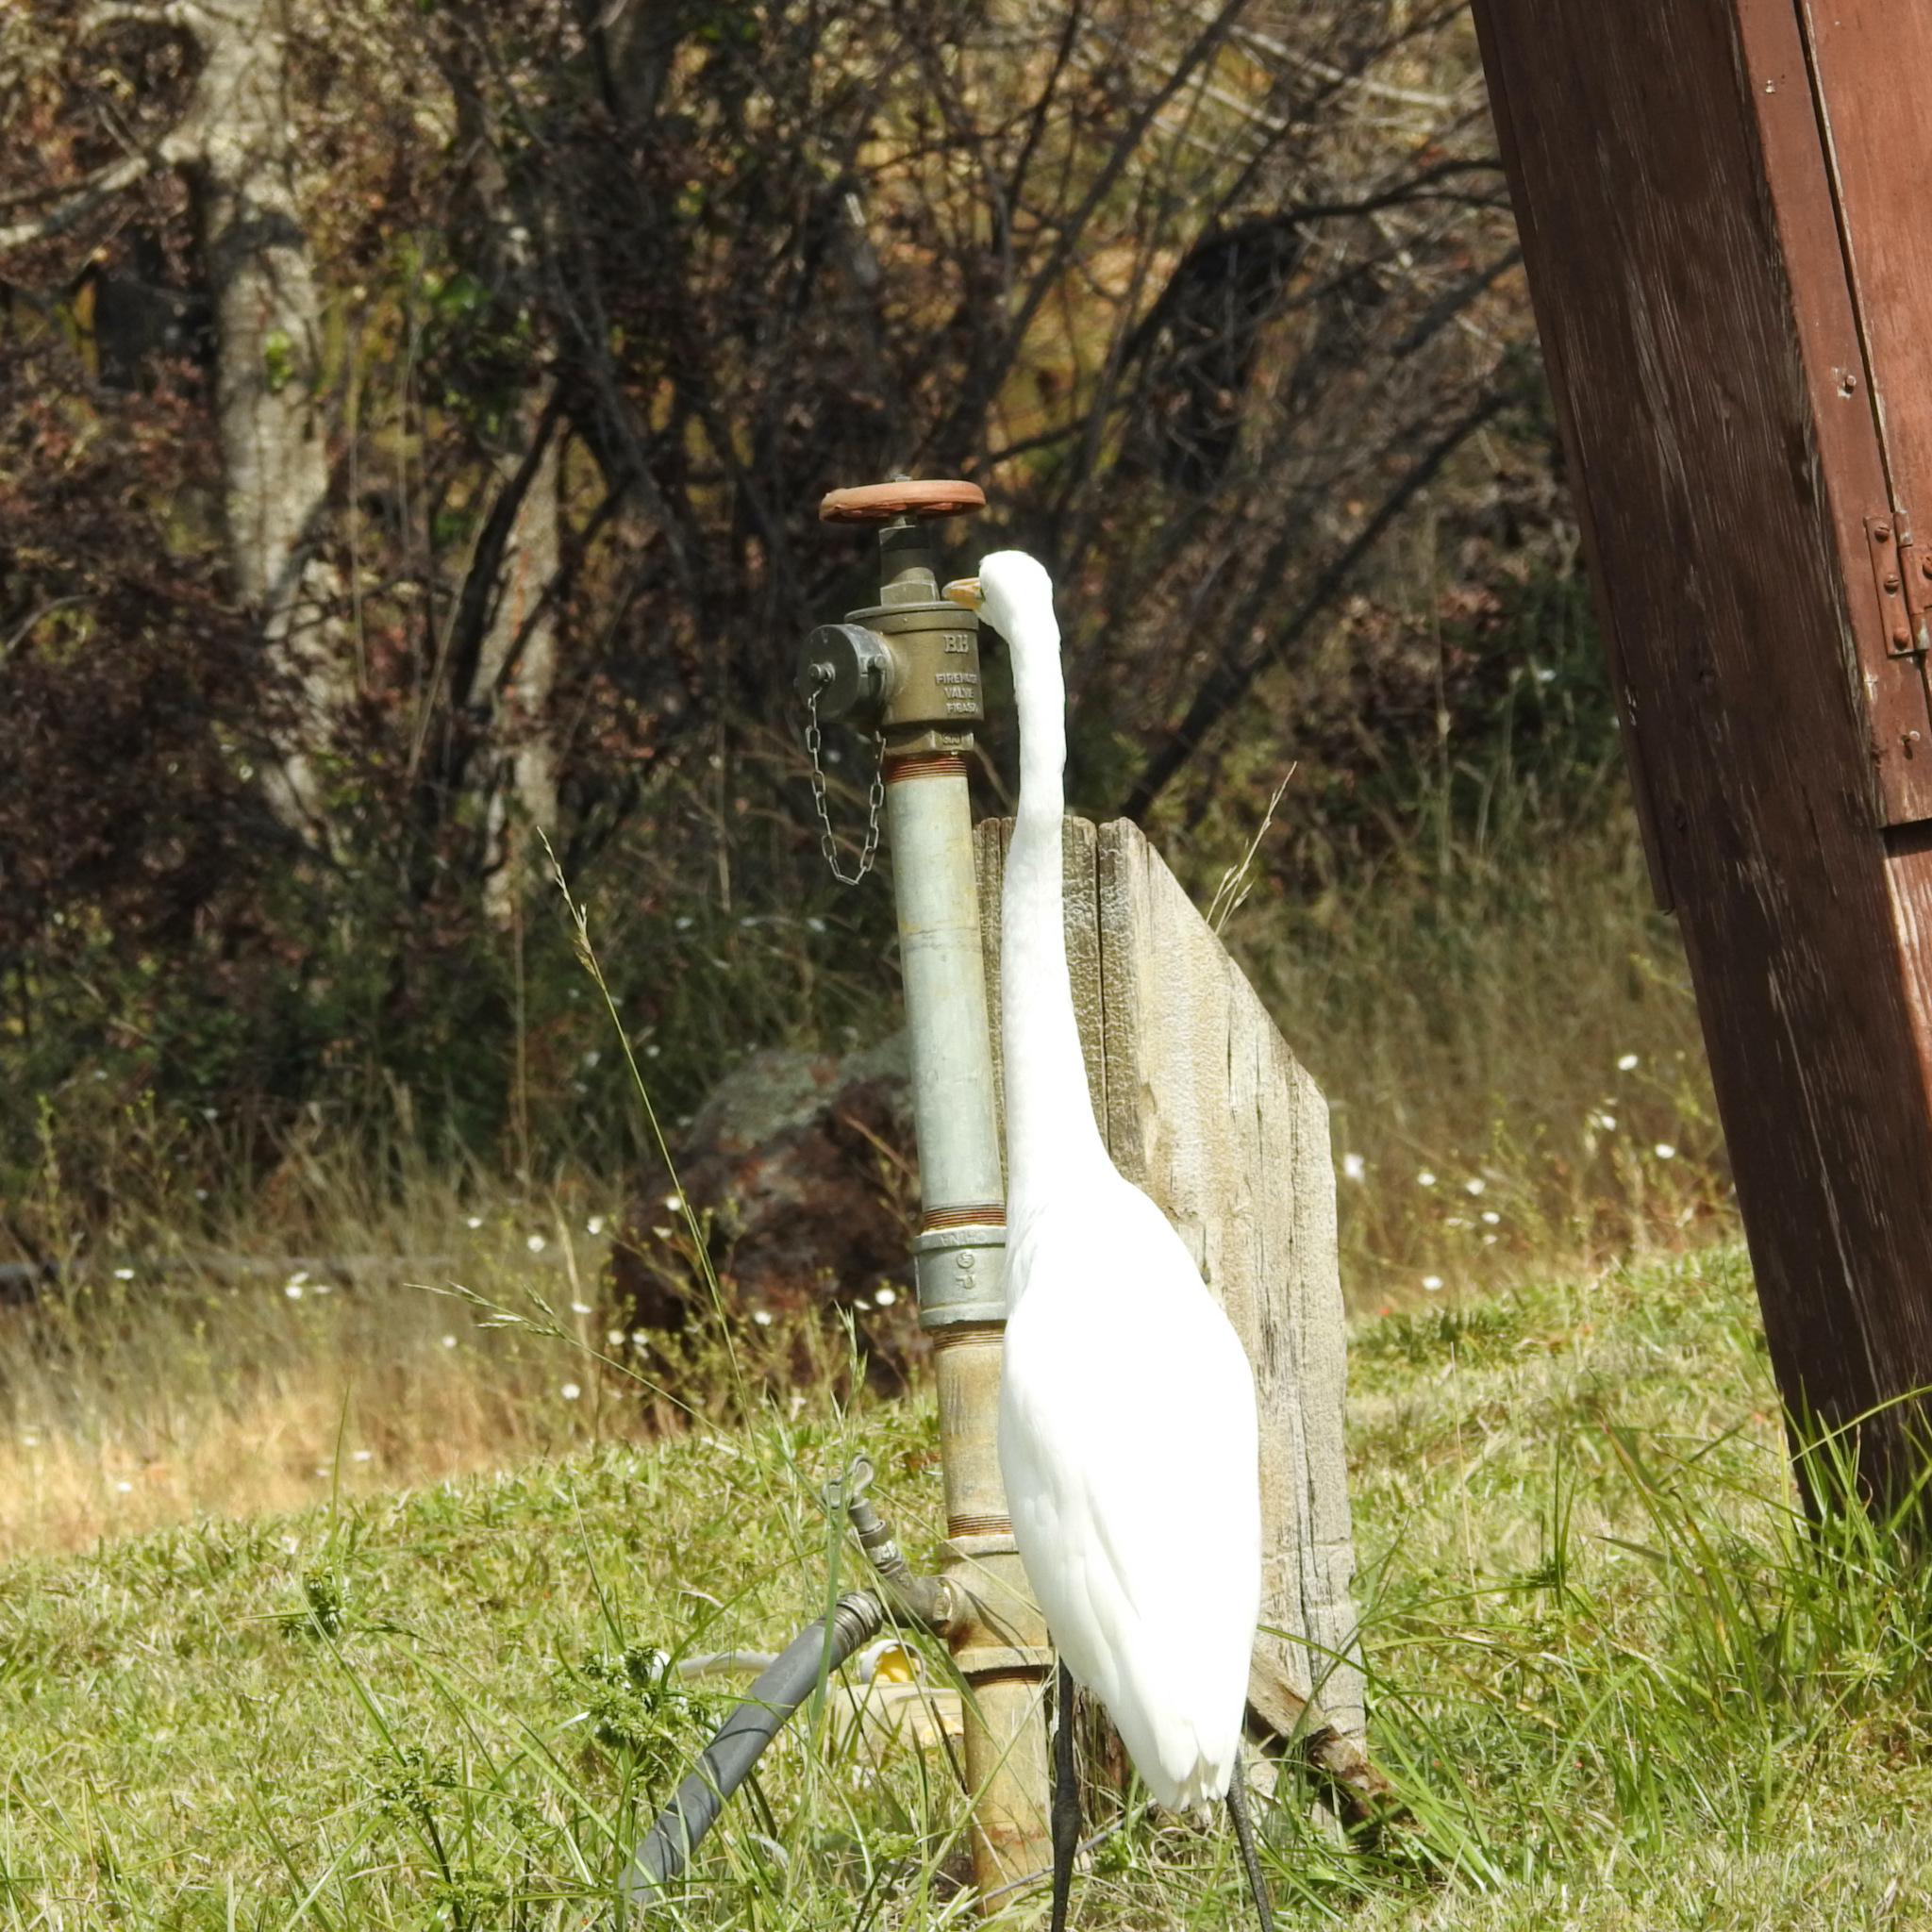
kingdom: Animalia
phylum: Chordata
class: Aves
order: Pelecaniformes
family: Ardeidae
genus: Ardea
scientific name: Ardea alba
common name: Great egret
